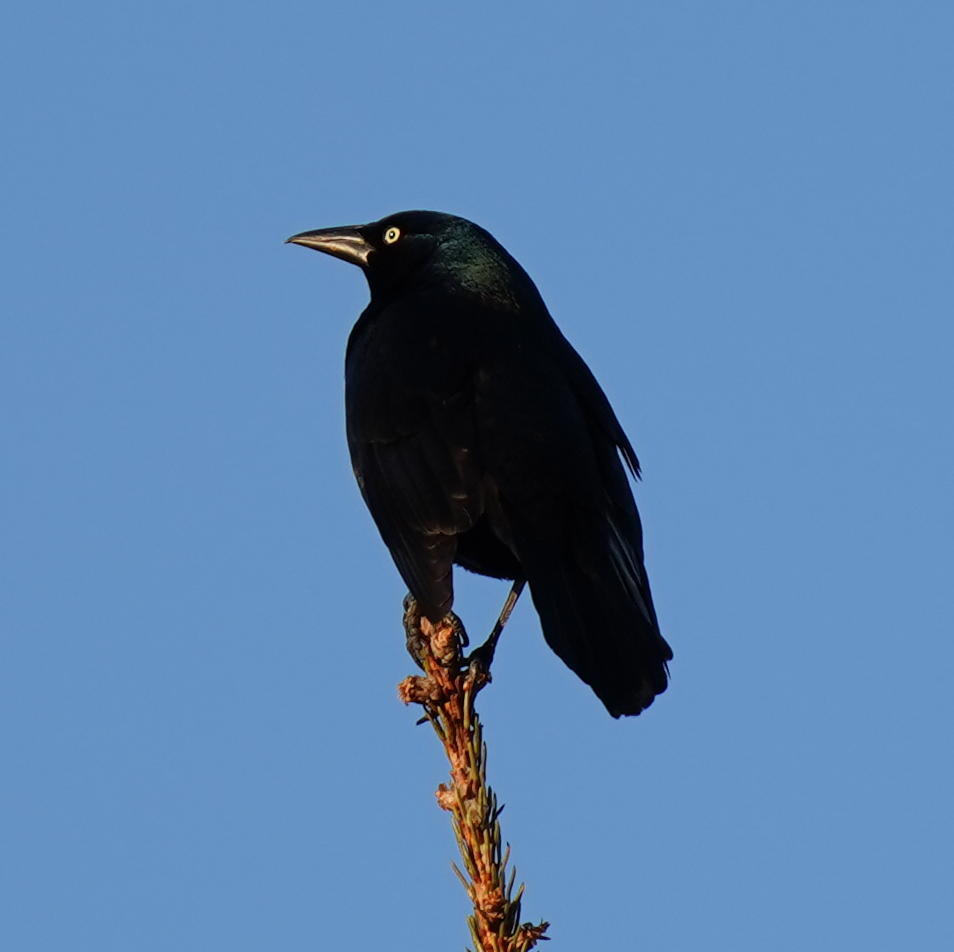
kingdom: Animalia
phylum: Chordata
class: Aves
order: Passeriformes
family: Icteridae
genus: Quiscalus
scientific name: Quiscalus quiscula
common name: Common grackle
